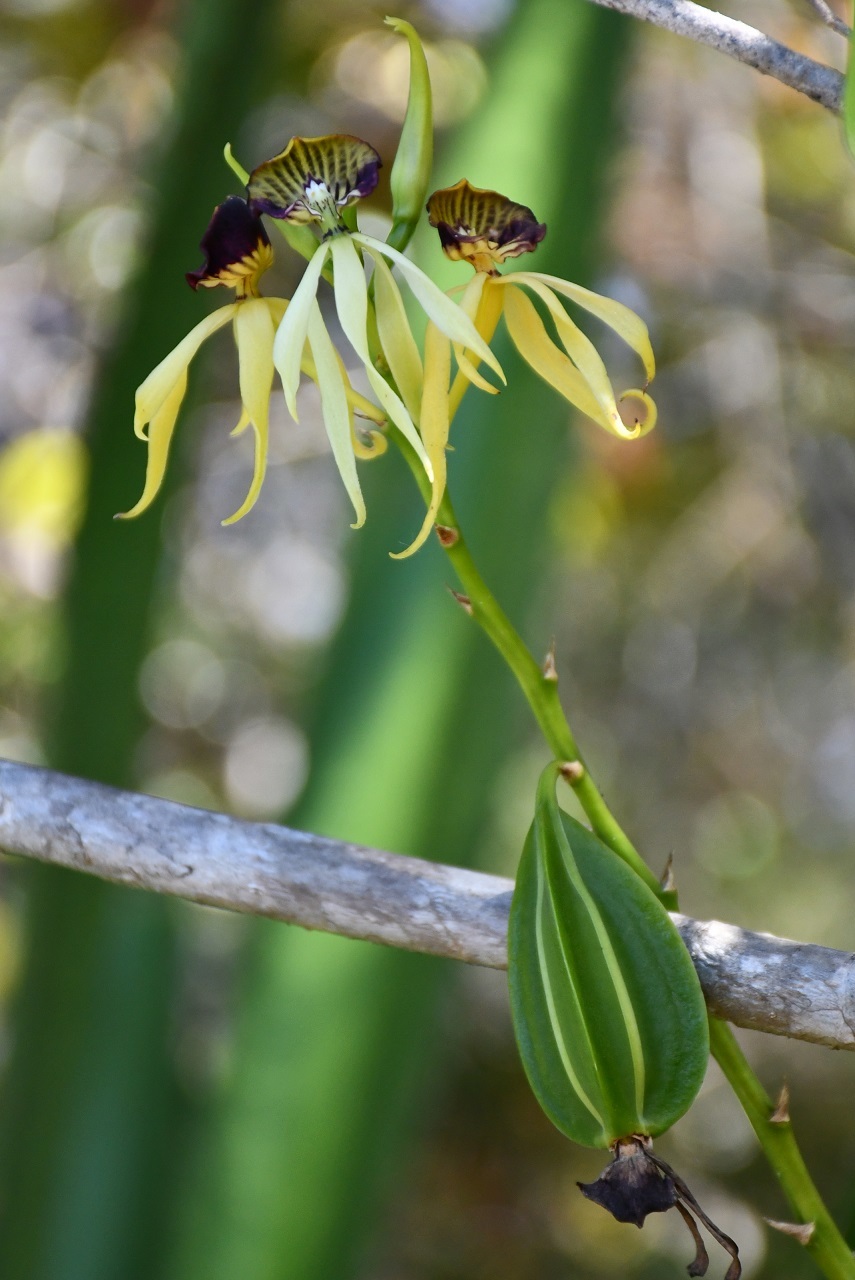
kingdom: Plantae
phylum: Tracheophyta
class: Liliopsida
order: Asparagales
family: Orchidaceae
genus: Prosthechea
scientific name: Prosthechea cochleata
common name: Clamshell orchid
